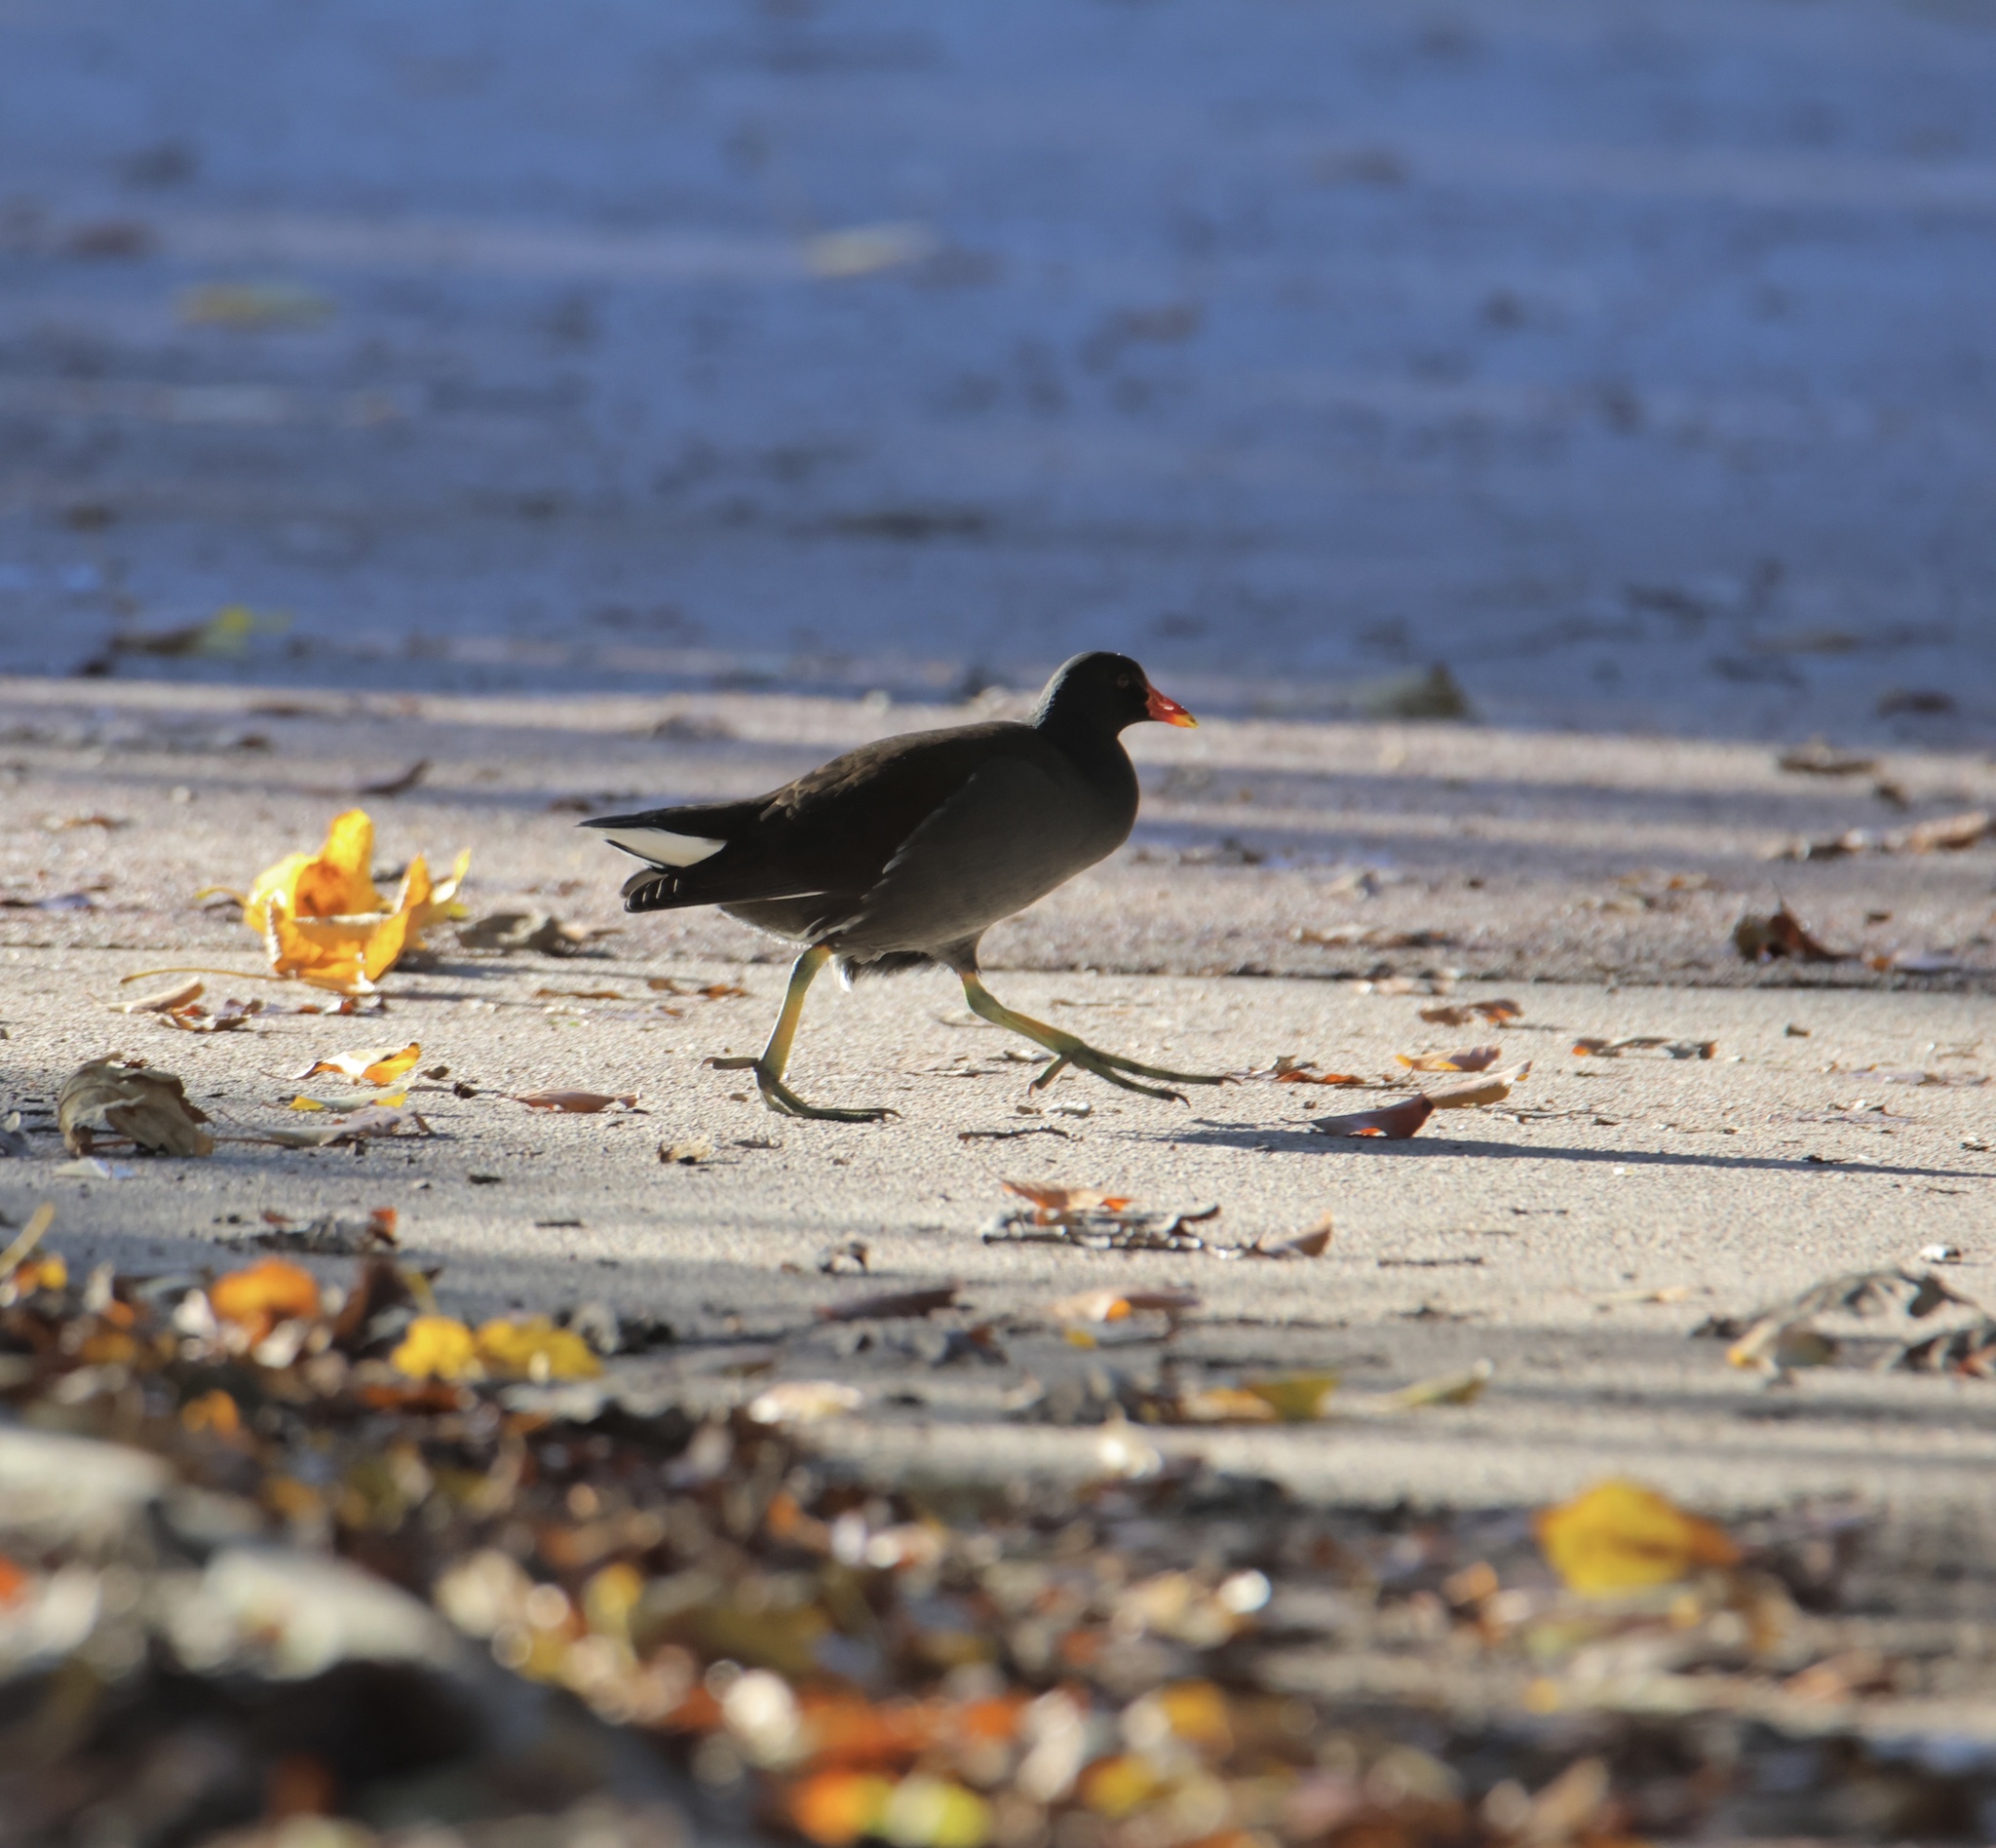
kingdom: Animalia
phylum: Chordata
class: Aves
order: Gruiformes
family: Rallidae
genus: Gallinula
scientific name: Gallinula chloropus
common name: Common moorhen
